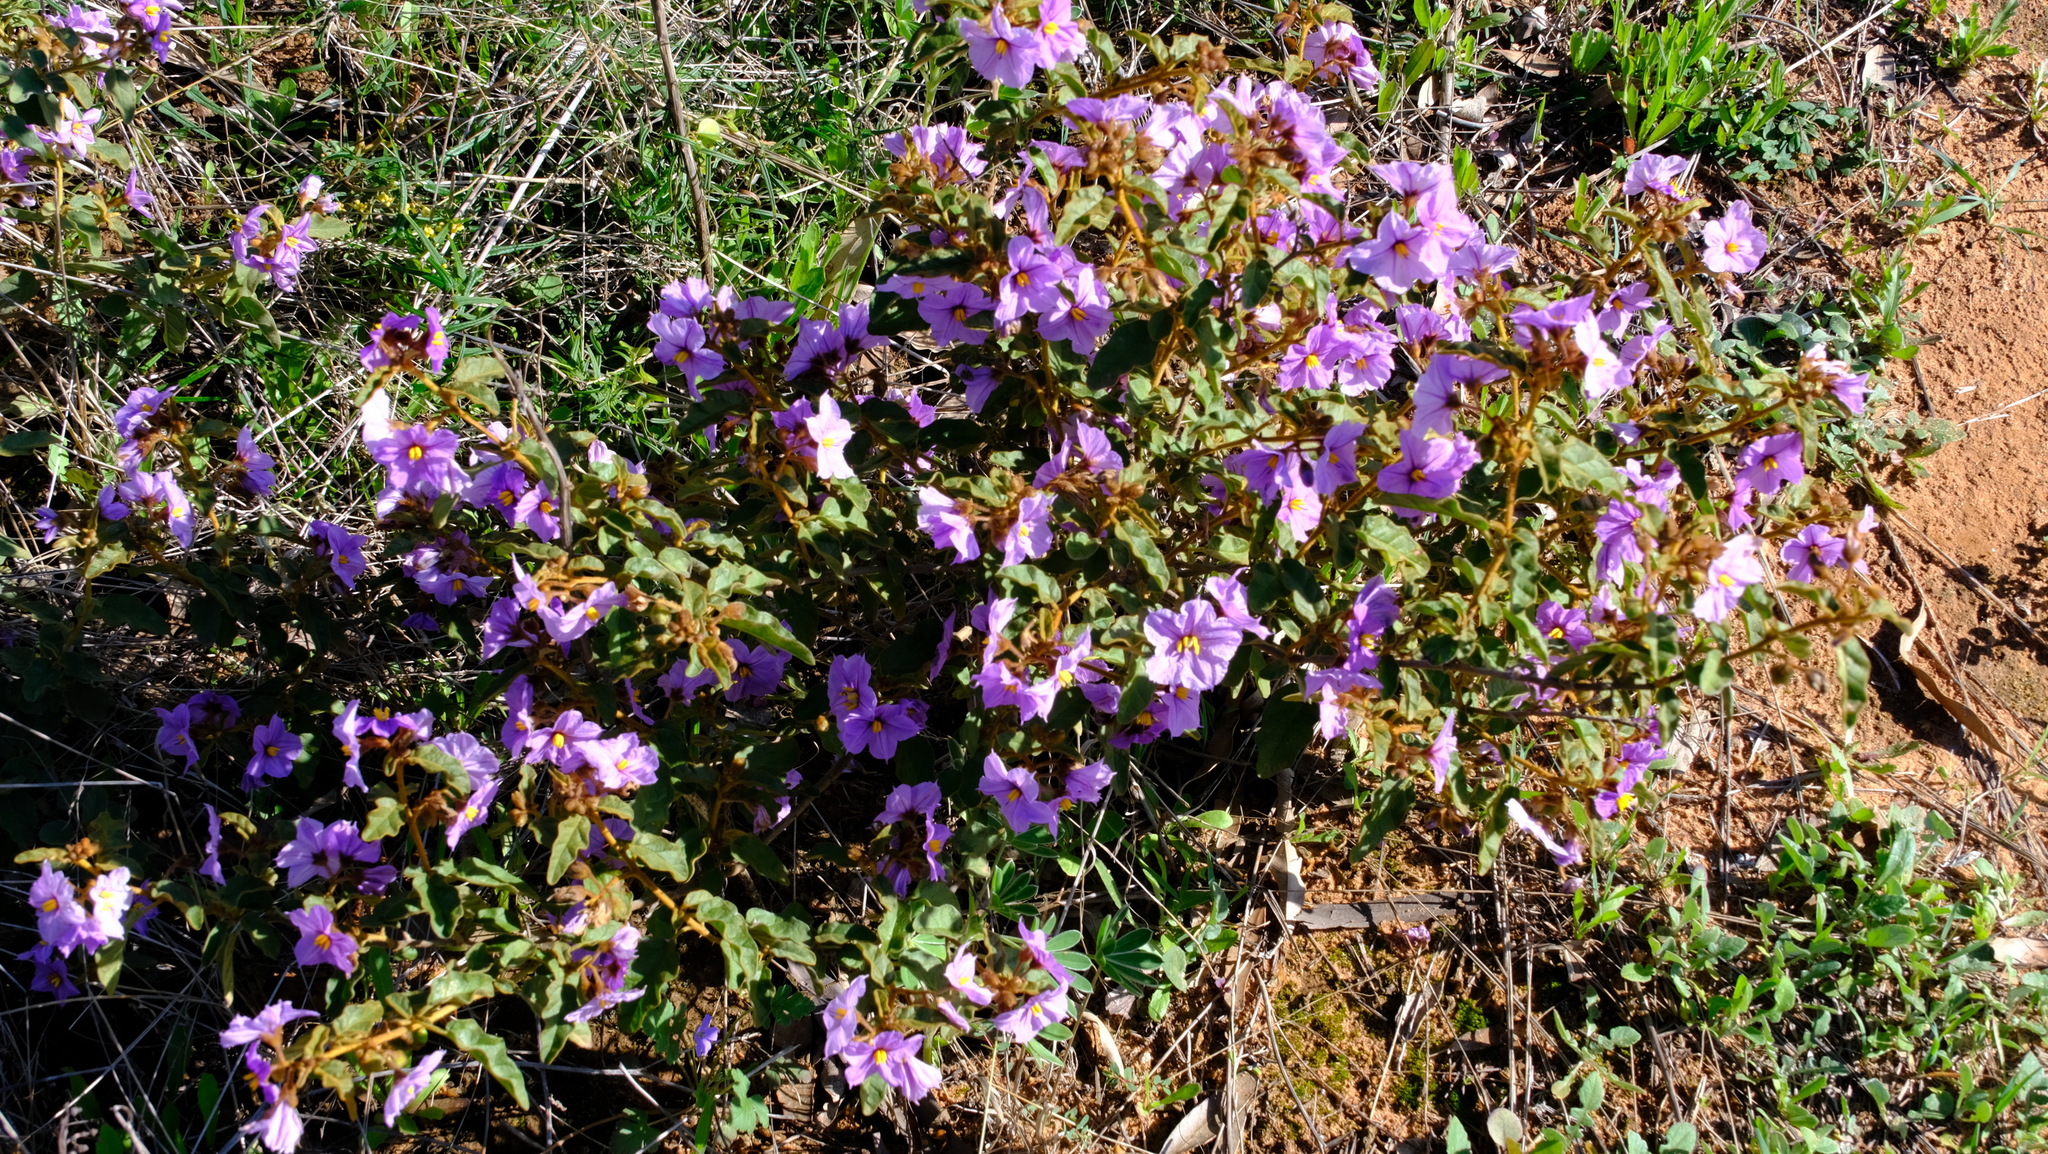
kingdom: Plantae
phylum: Tracheophyta
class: Magnoliopsida
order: Solanales
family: Solanaceae
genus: Solanum
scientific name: Solanum oldfieldii
